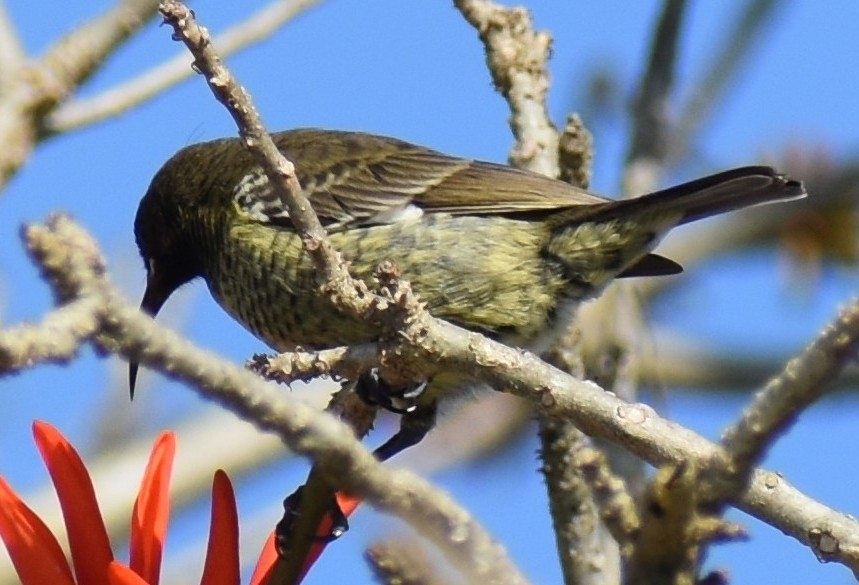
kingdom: Animalia
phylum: Chordata
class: Aves
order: Passeriformes
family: Nectariniidae
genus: Chalcomitra
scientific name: Chalcomitra senegalensis
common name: Scarlet-chested sunbird
